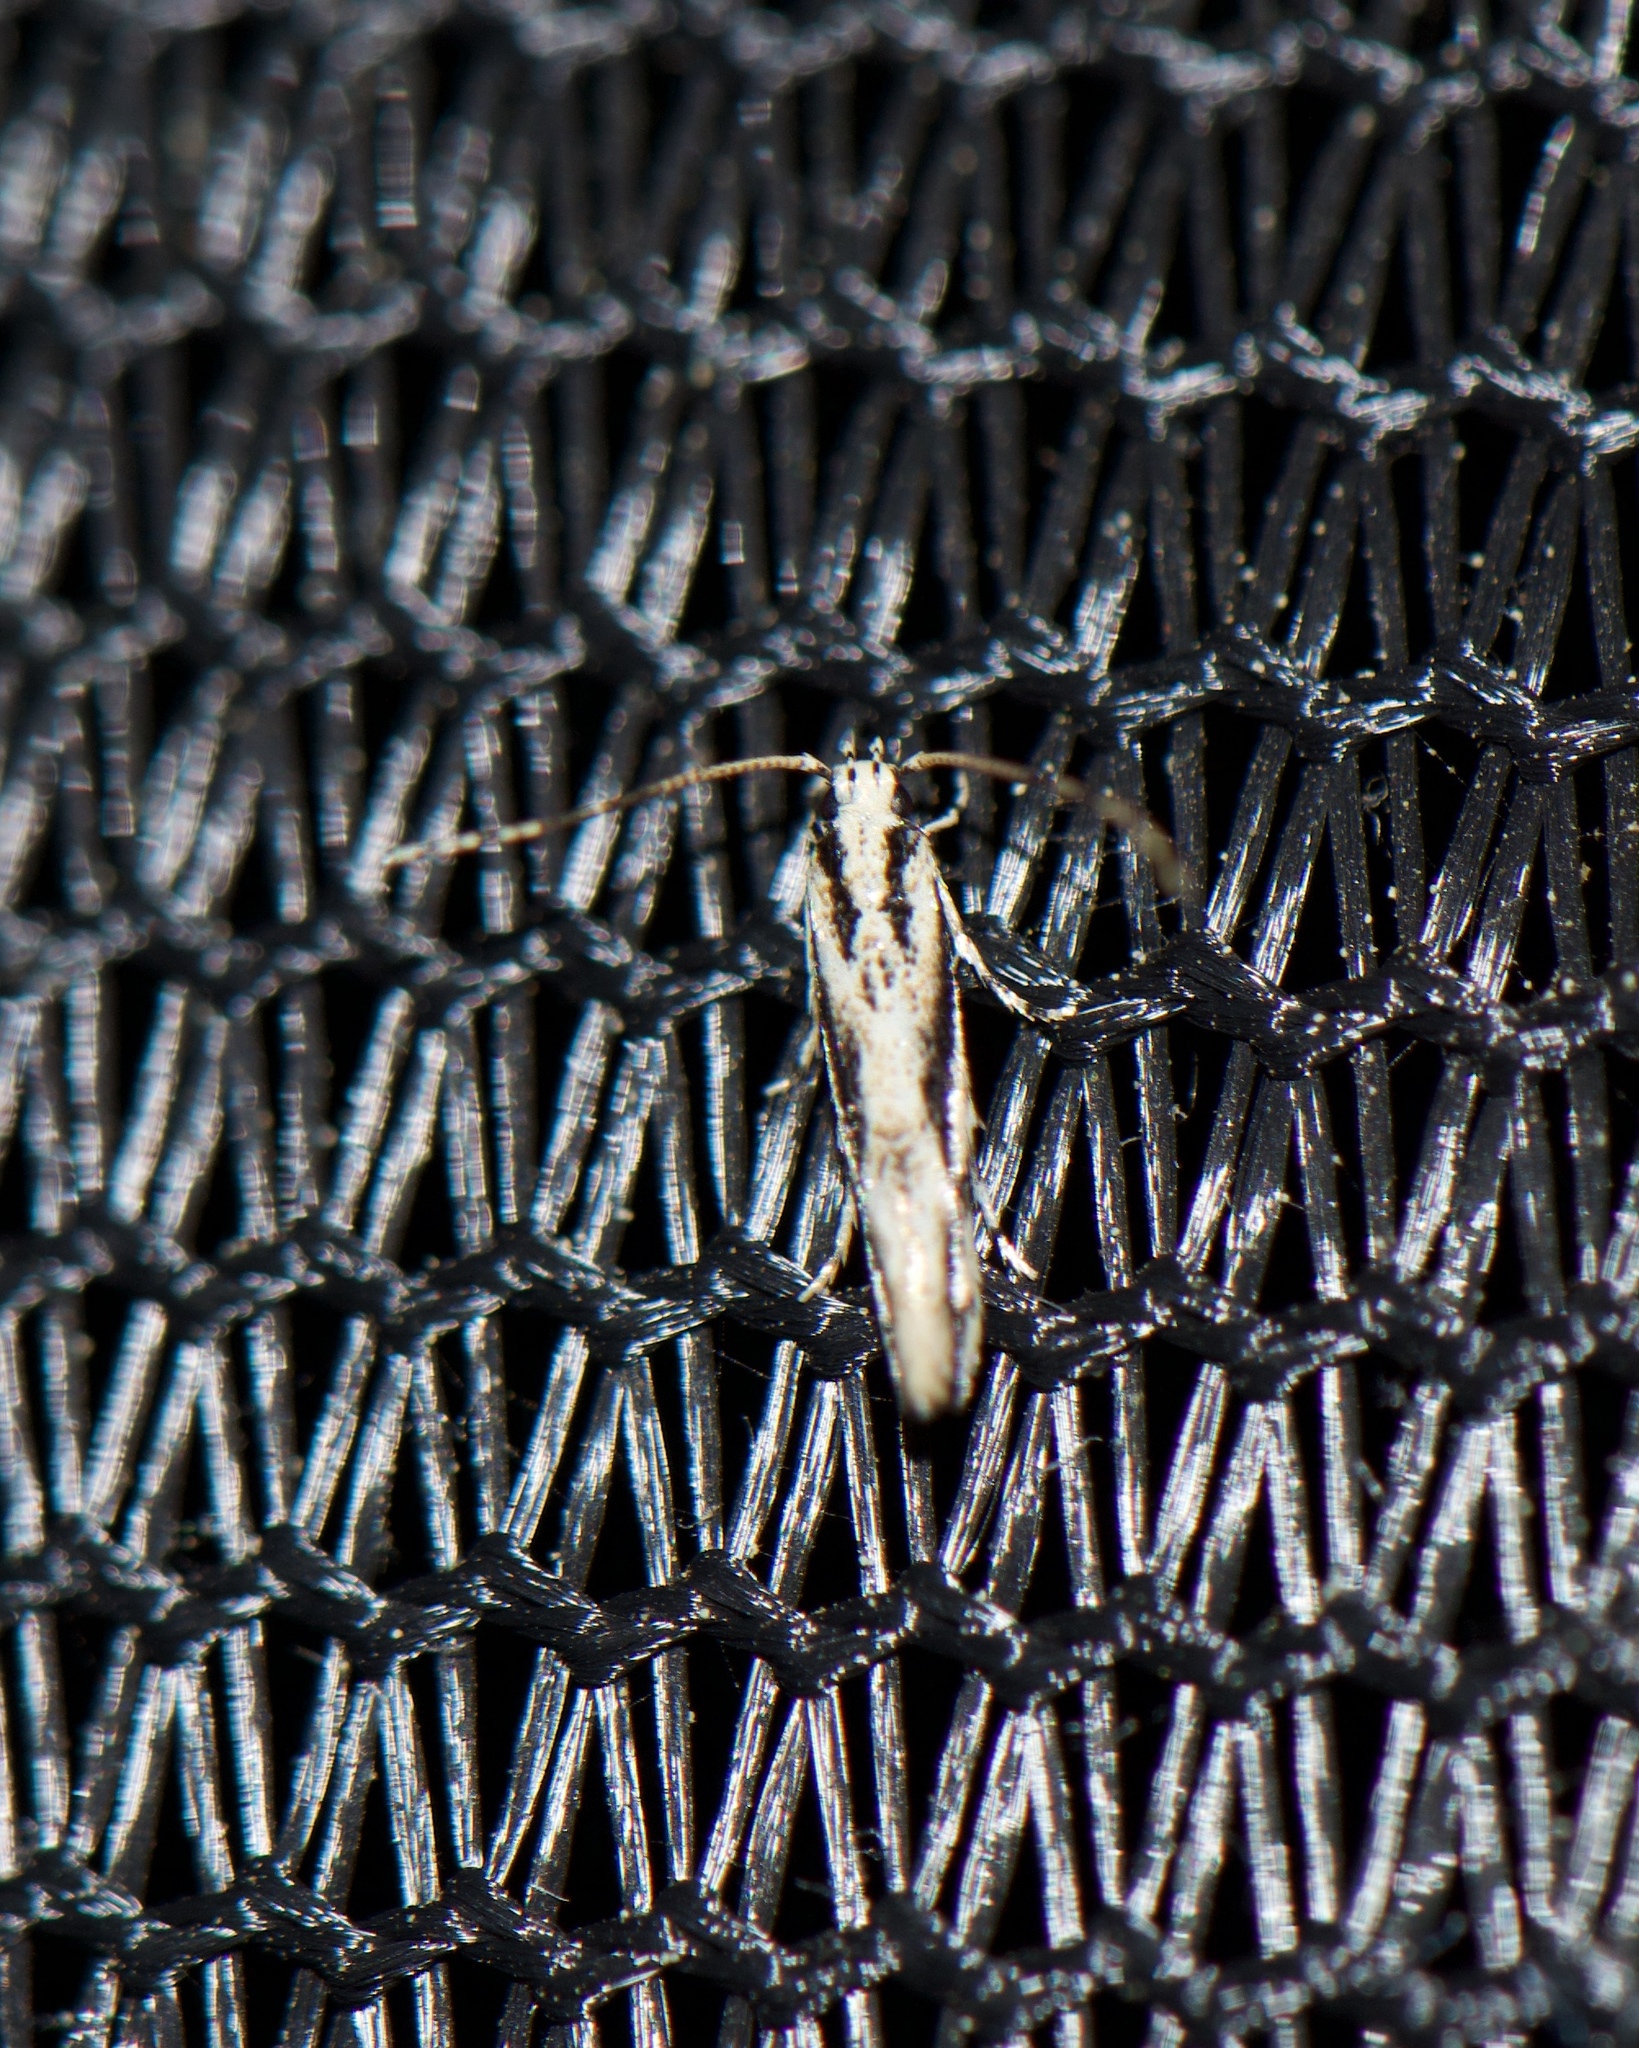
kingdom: Animalia
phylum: Arthropoda
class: Insecta
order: Lepidoptera
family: Cosmopterigidae
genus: Melanocinclis
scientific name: Melanocinclis lineigera
